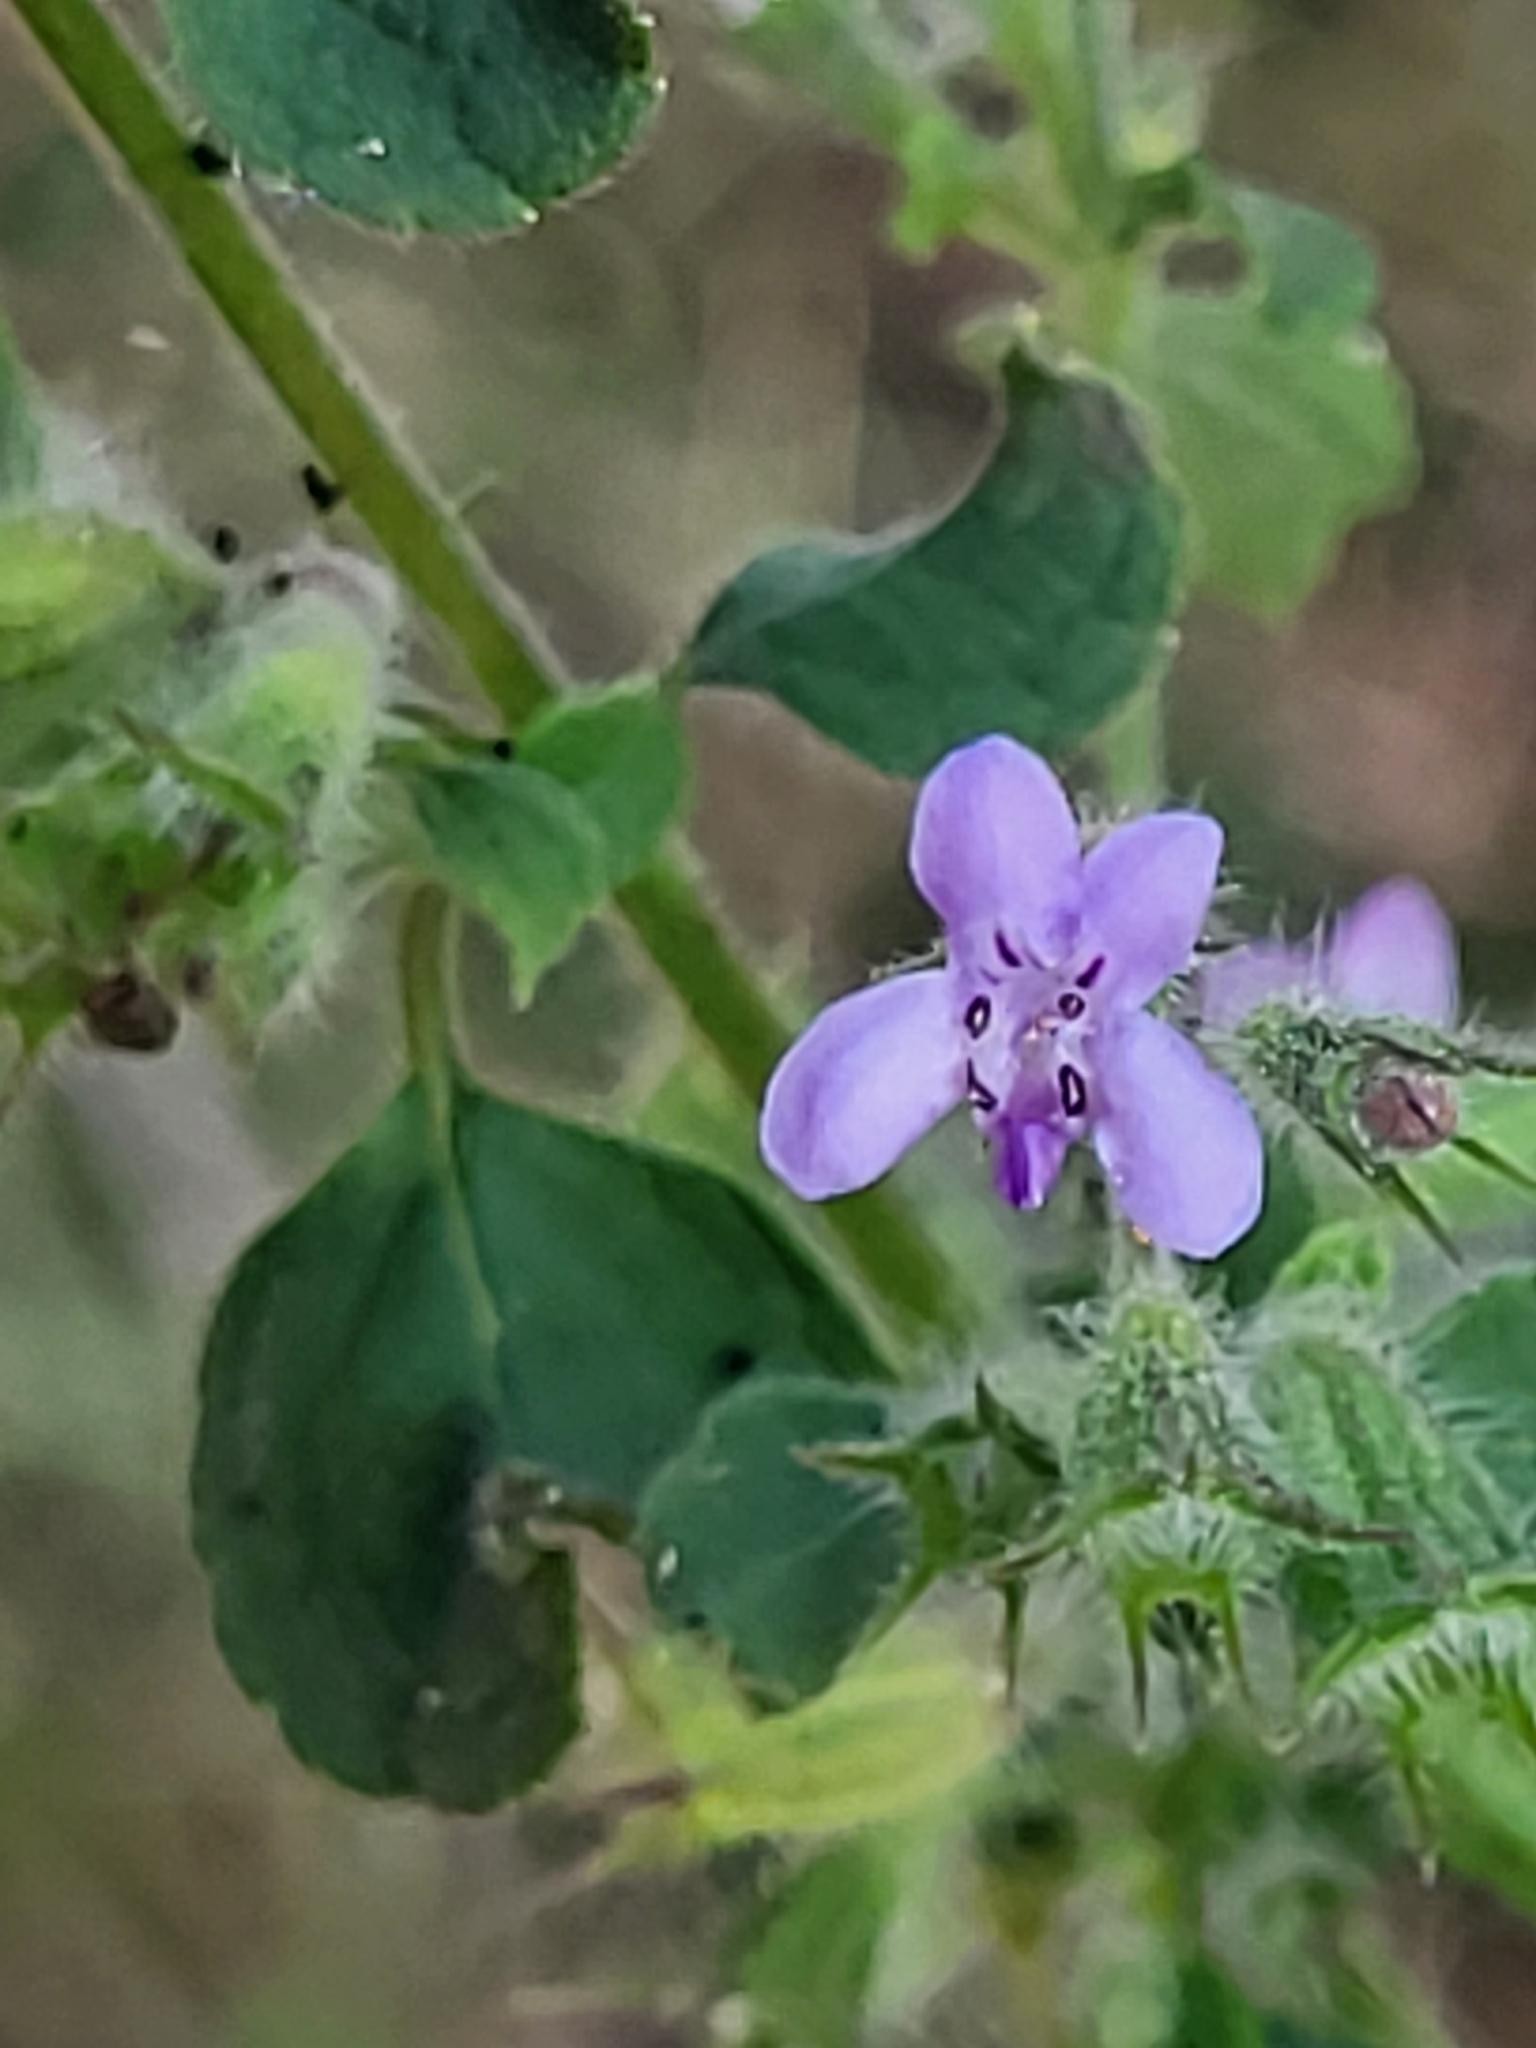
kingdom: Plantae
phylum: Tracheophyta
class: Magnoliopsida
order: Lamiales
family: Lamiaceae
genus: Mesosphaerum
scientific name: Mesosphaerum suaveolens
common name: Pignut
